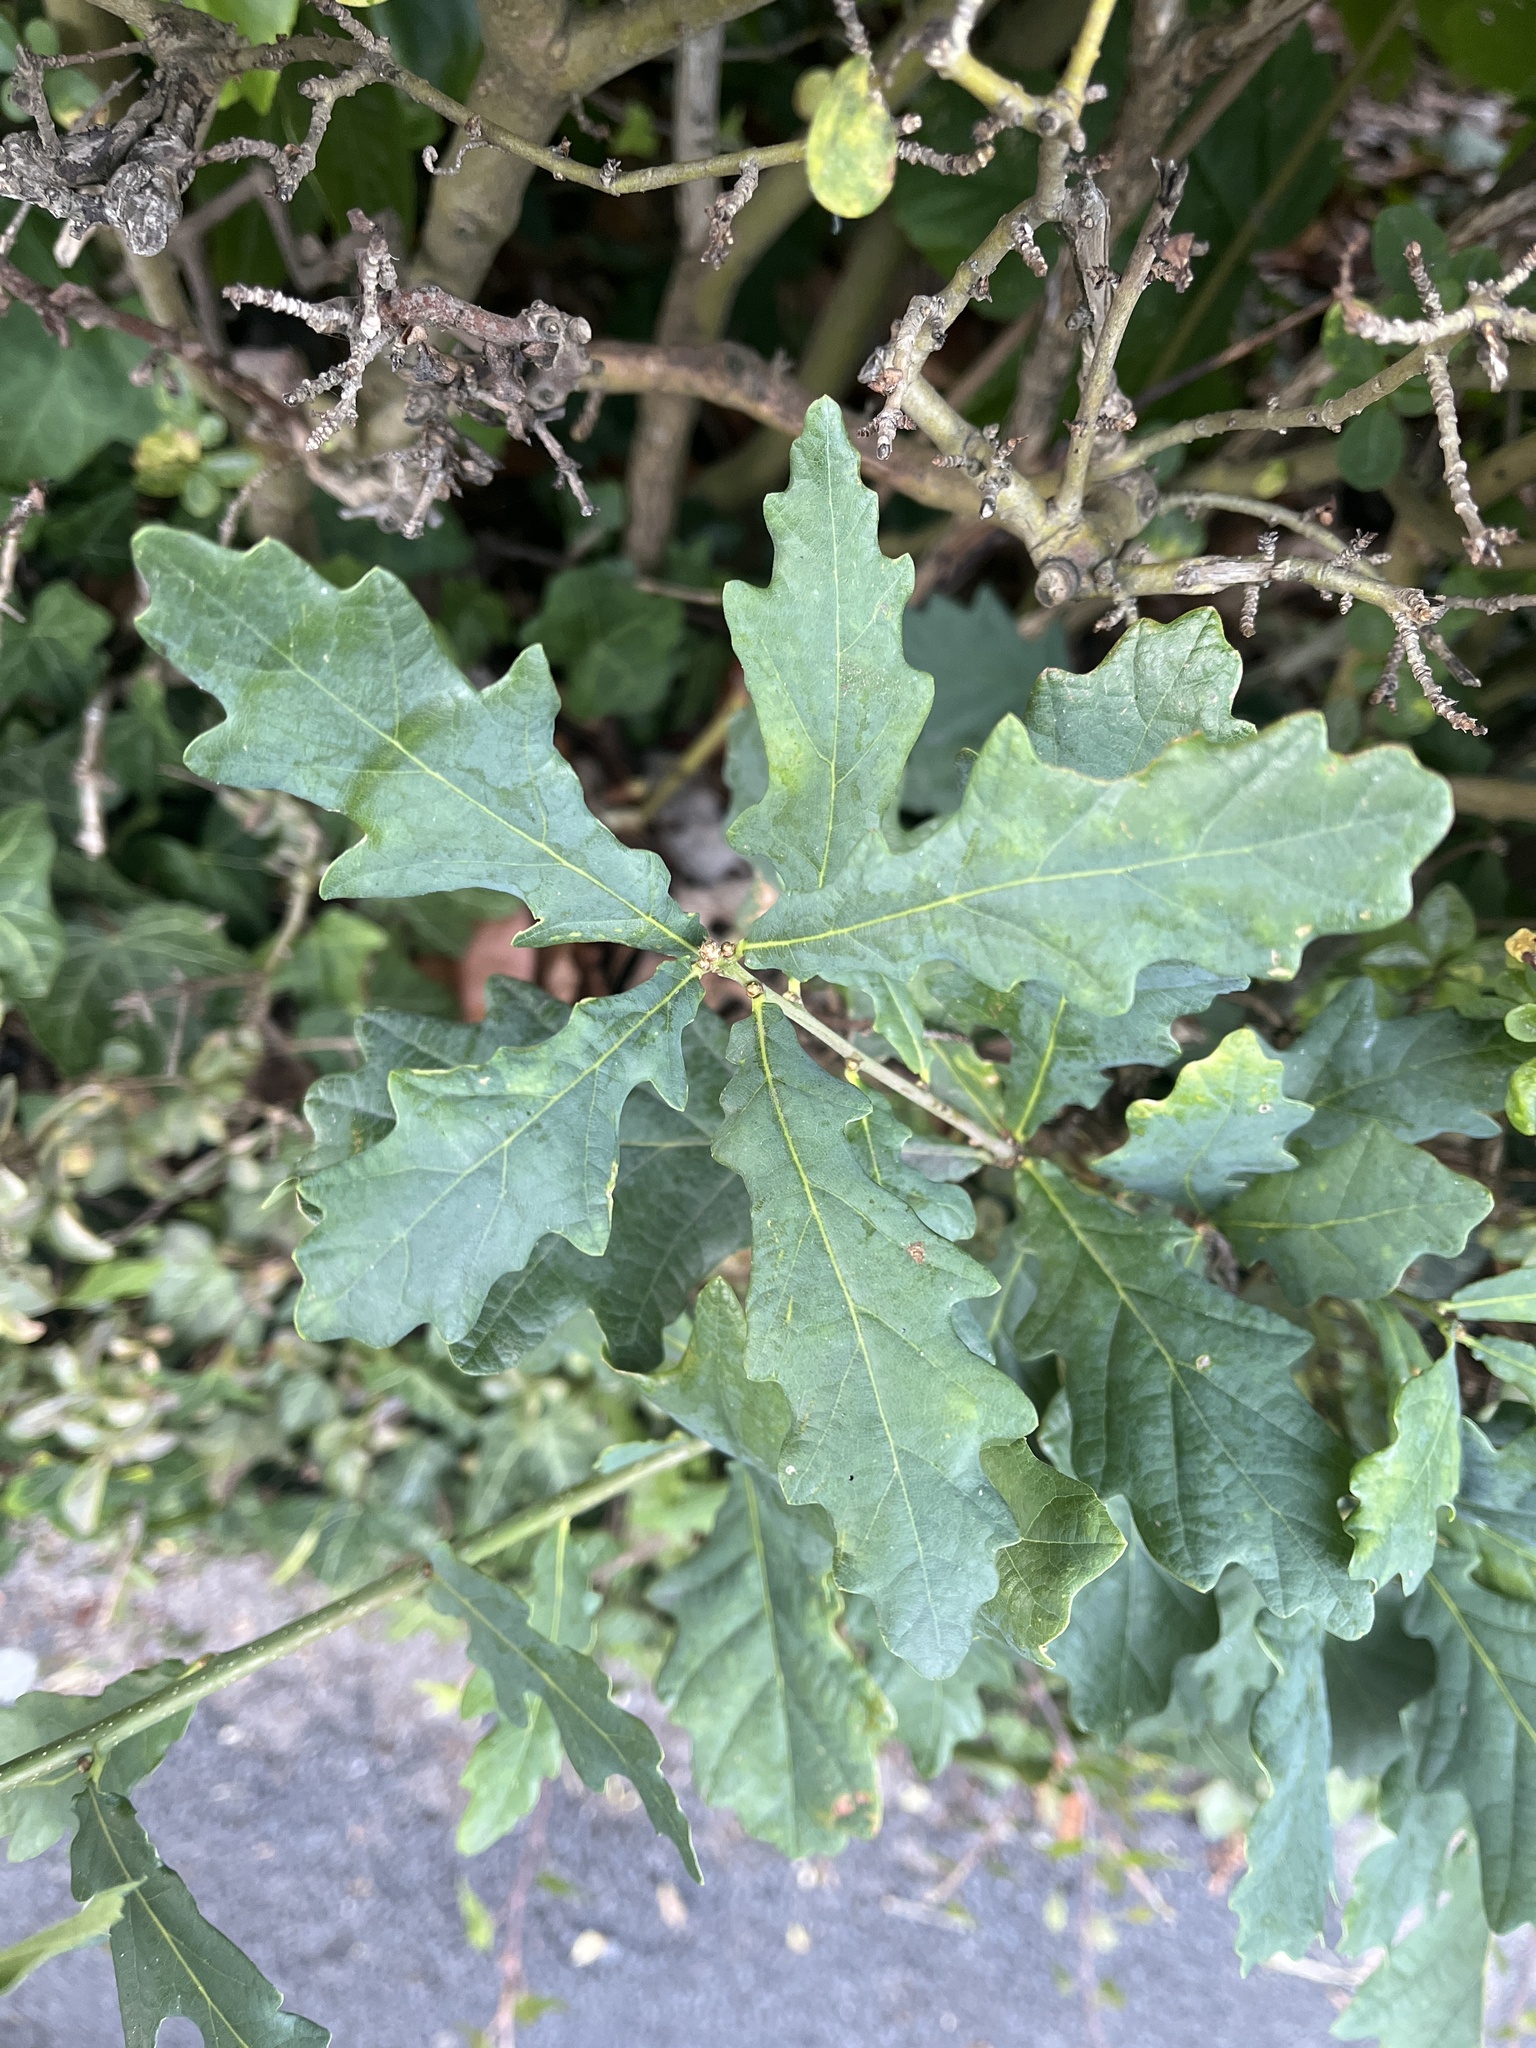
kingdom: Plantae
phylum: Tracheophyta
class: Magnoliopsida
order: Fagales
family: Fagaceae
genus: Quercus
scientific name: Quercus robur
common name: Pedunculate oak
